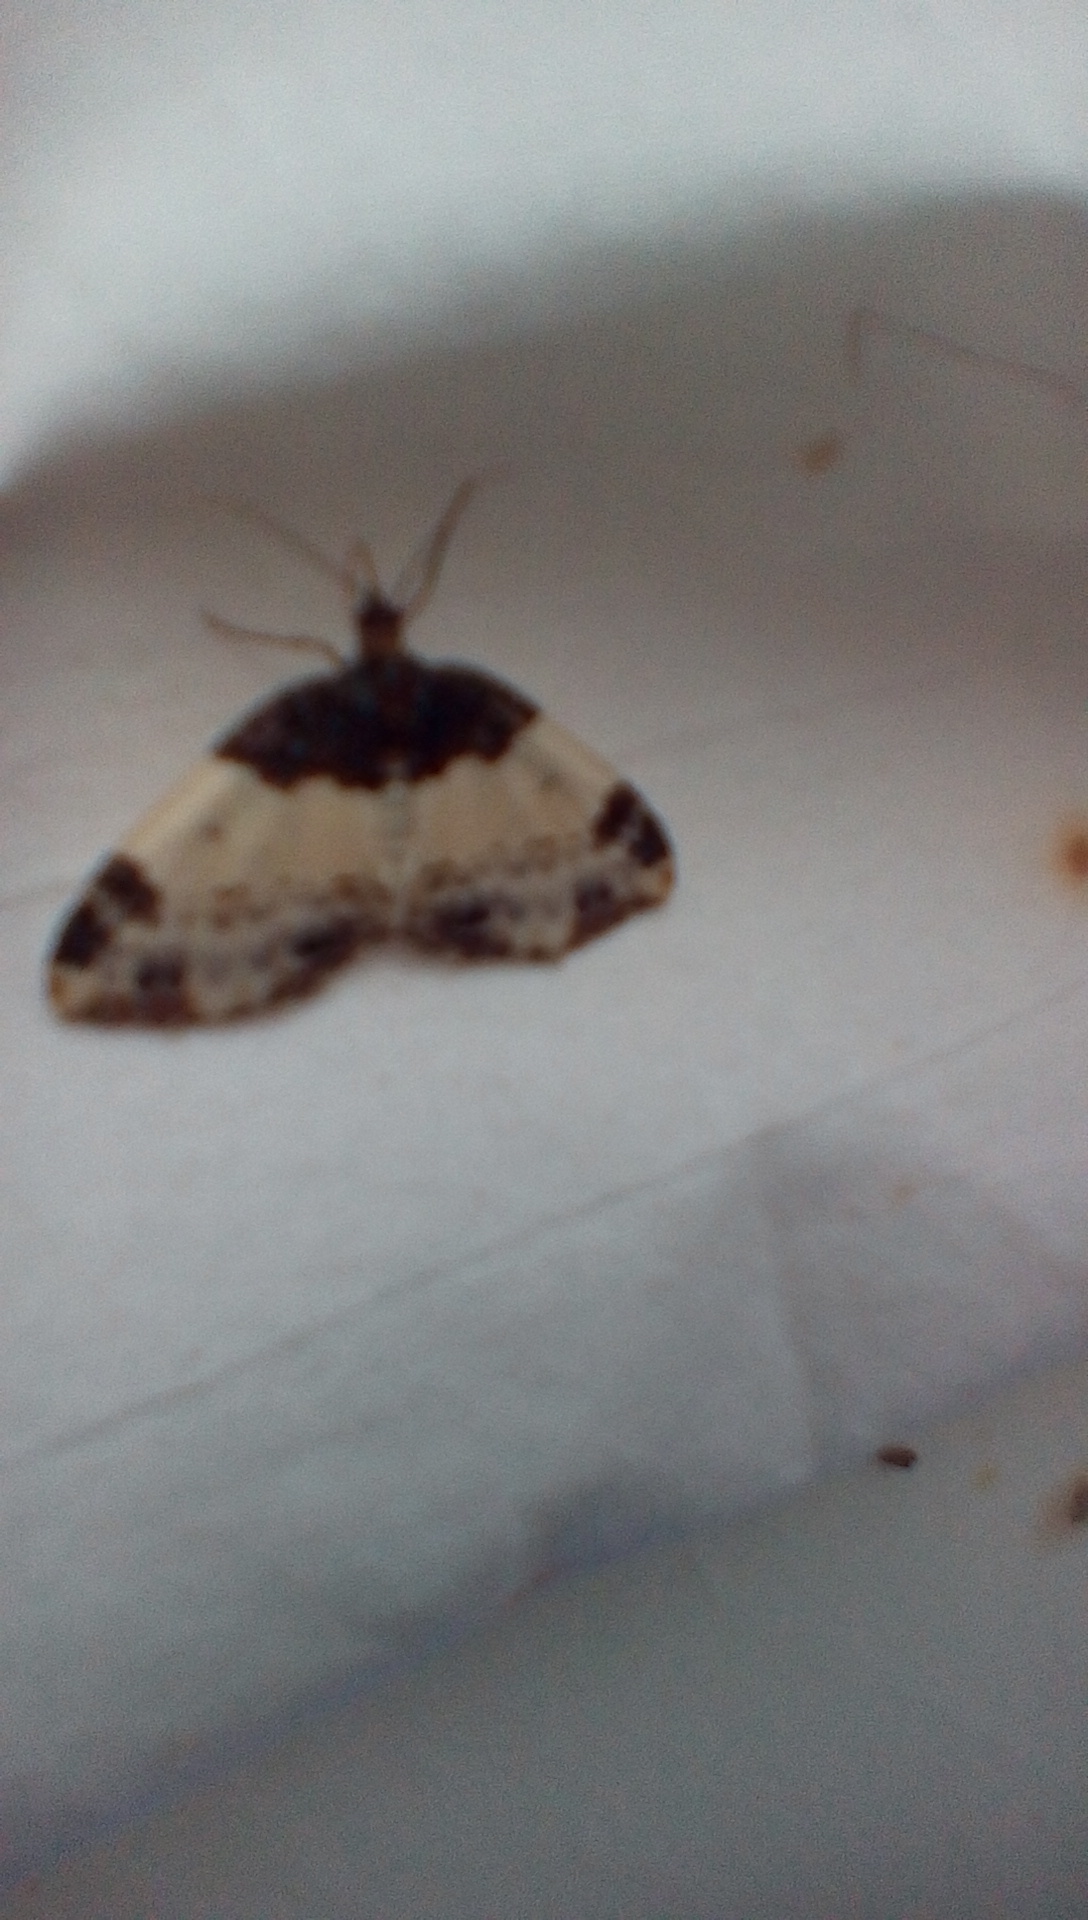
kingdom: Animalia
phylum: Arthropoda
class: Insecta
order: Lepidoptera
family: Geometridae
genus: Mesoleuca
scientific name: Mesoleuca ruficillata
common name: White-ribboned carpet moth
